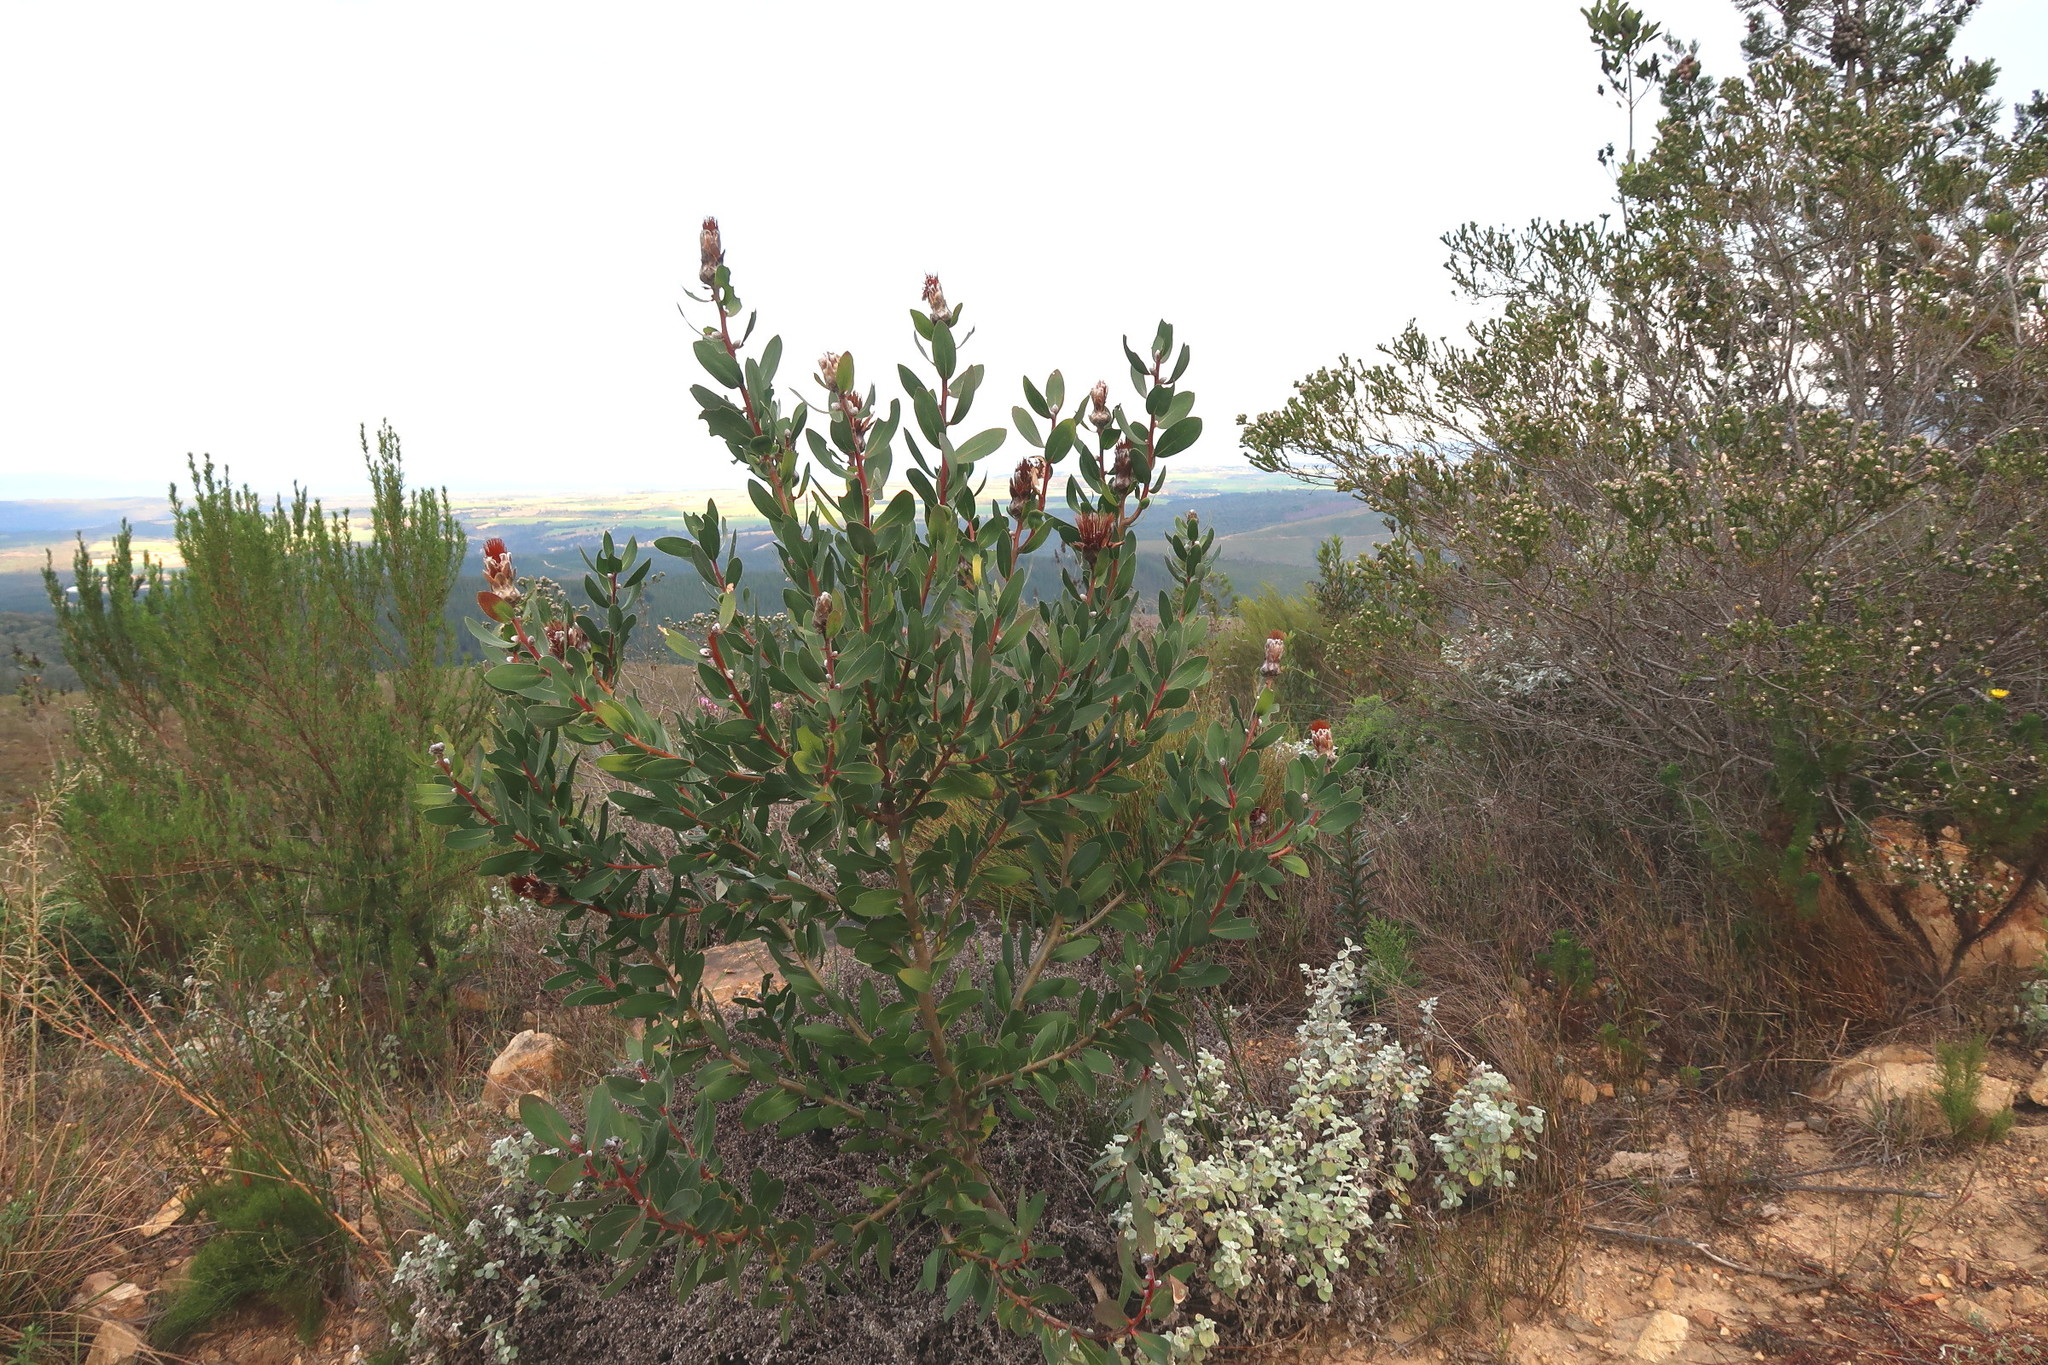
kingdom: Plantae
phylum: Tracheophyta
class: Magnoliopsida
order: Proteales
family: Proteaceae
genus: Protea
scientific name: Protea mundii
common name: Forest sugarbush
